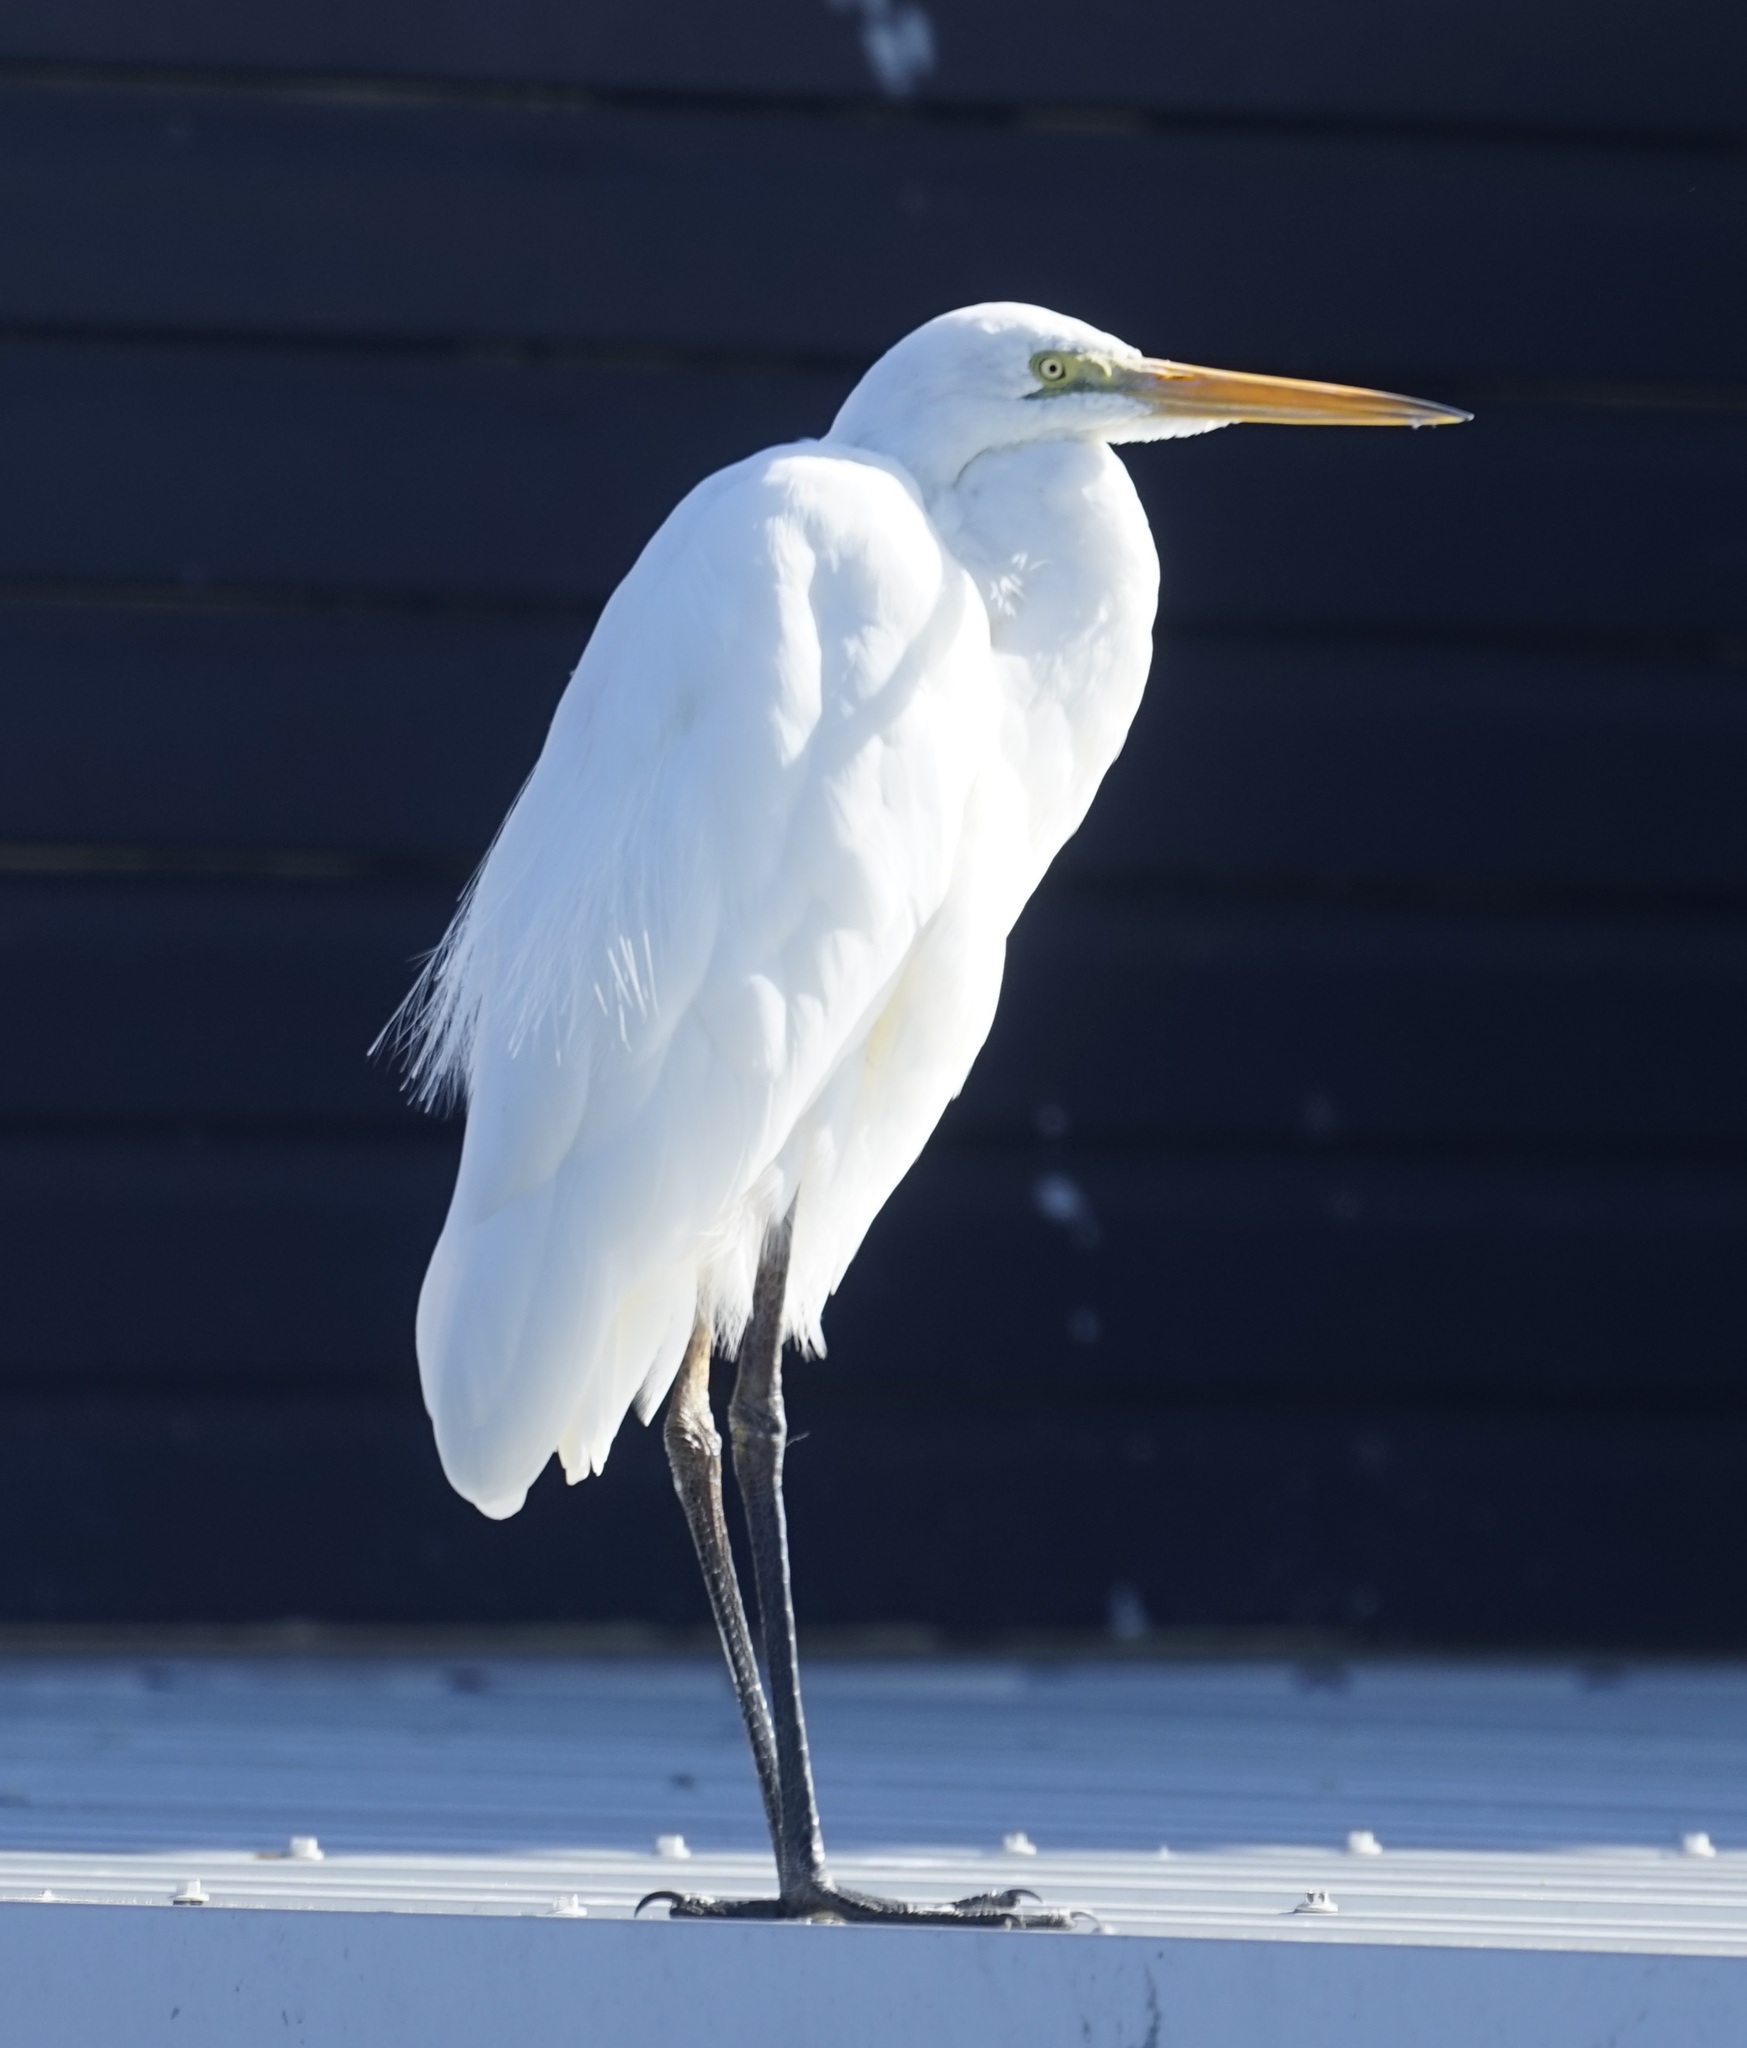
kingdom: Animalia
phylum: Chordata
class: Aves
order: Pelecaniformes
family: Ardeidae
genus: Ardea
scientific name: Ardea modesta
